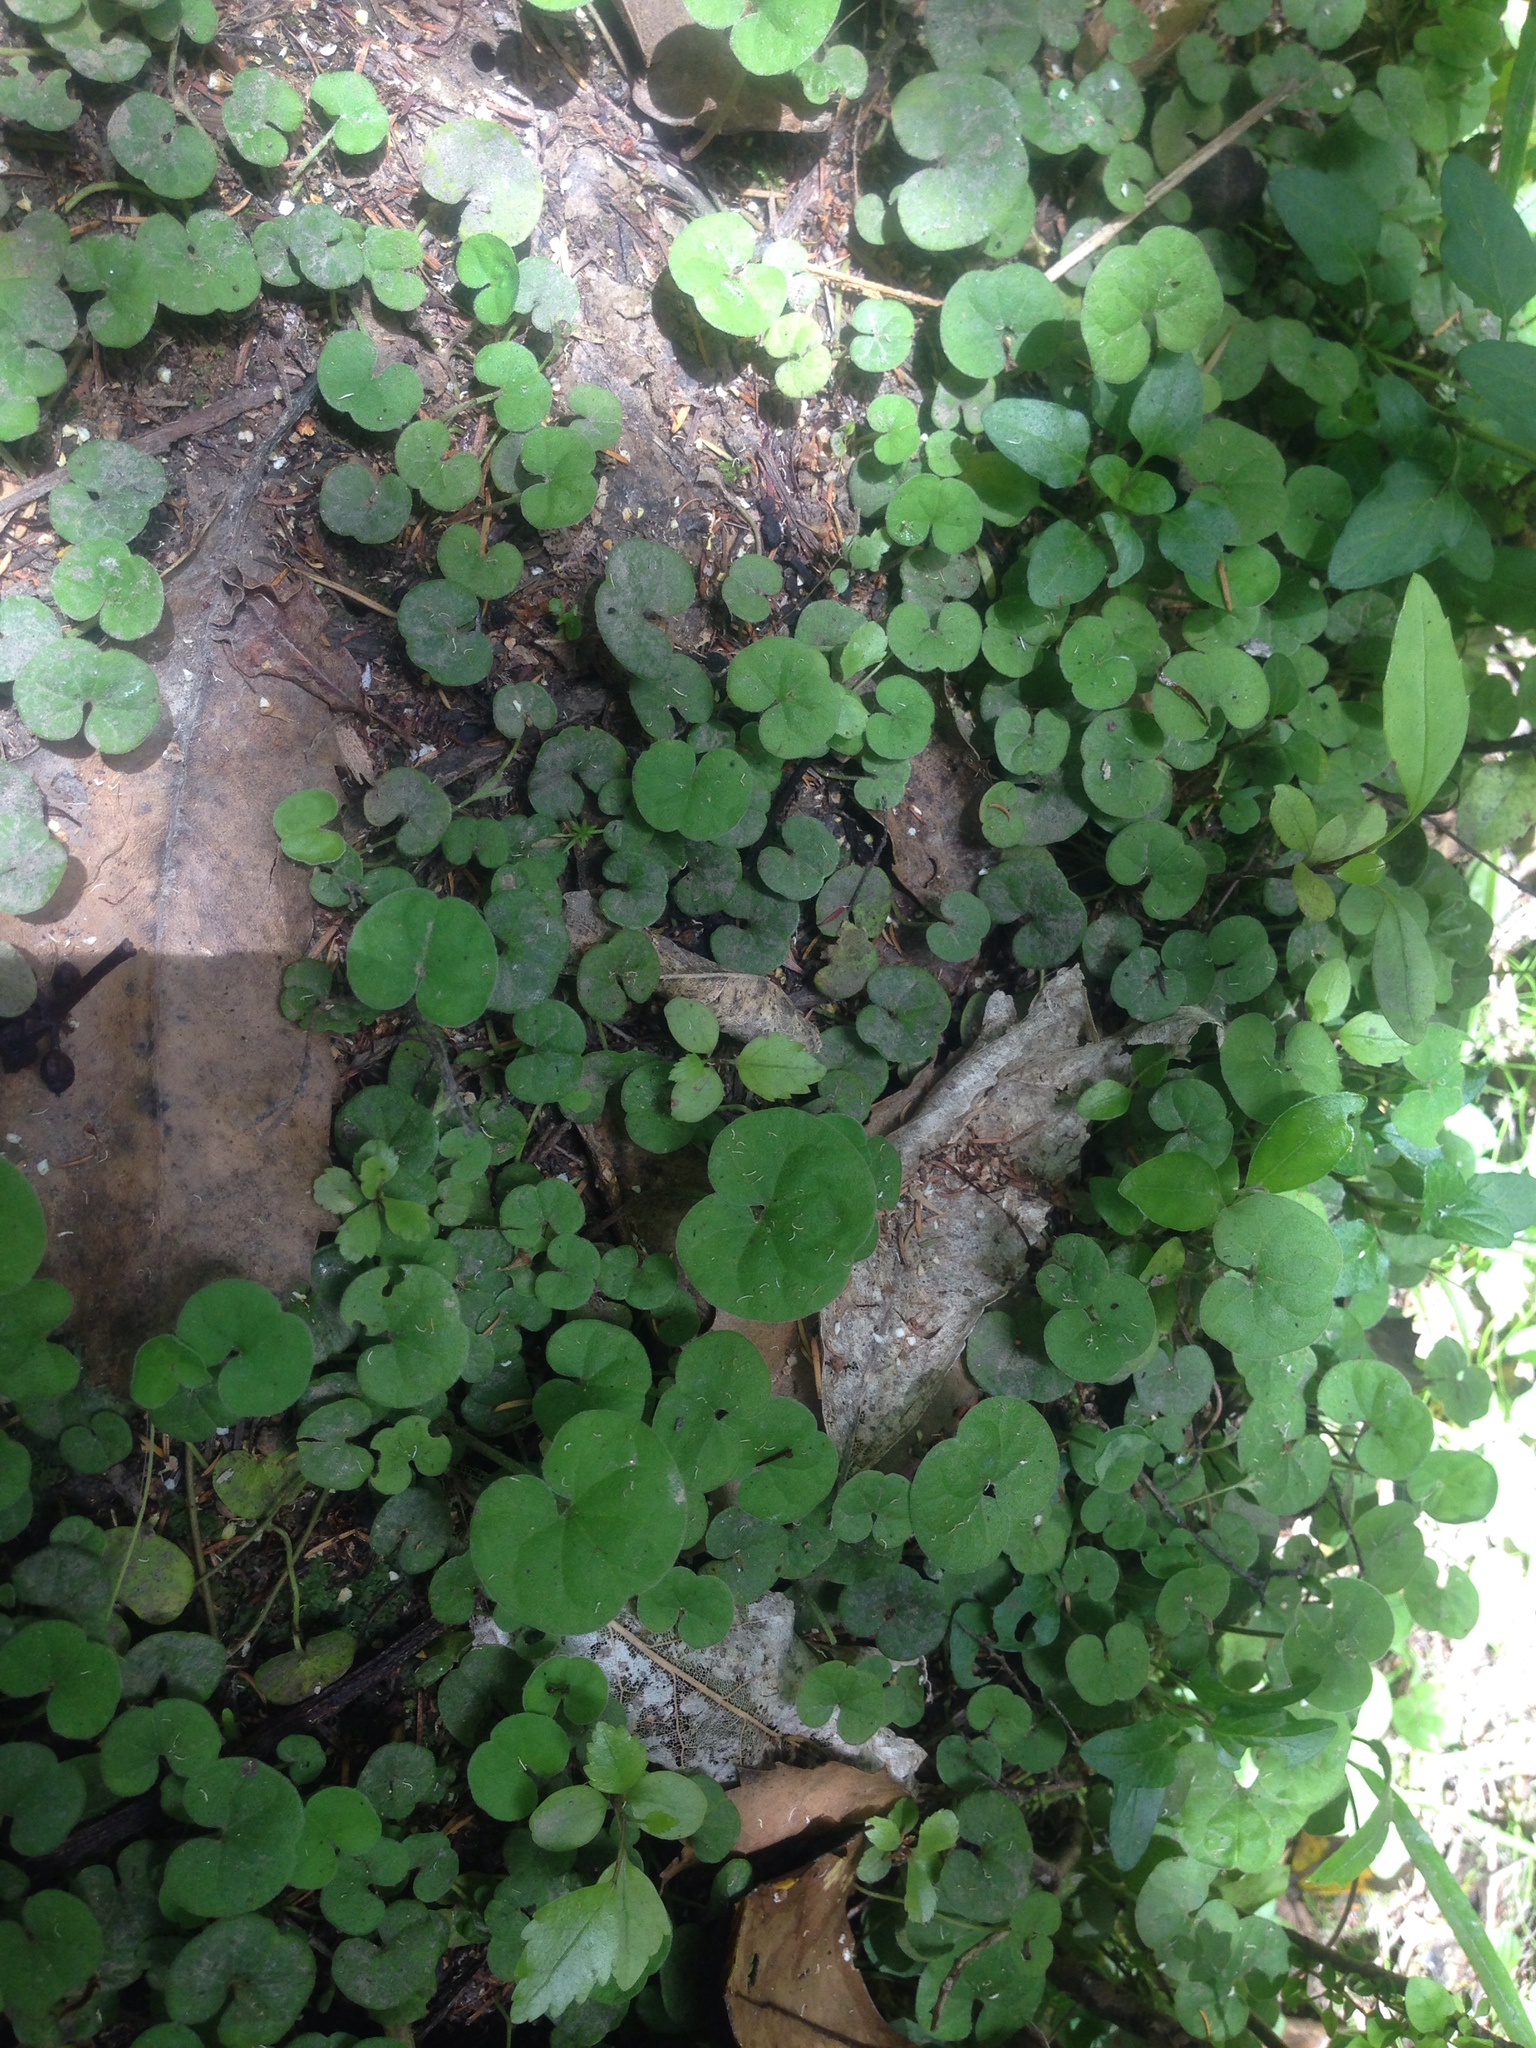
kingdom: Plantae
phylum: Tracheophyta
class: Magnoliopsida
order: Solanales
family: Convolvulaceae
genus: Dichondra
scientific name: Dichondra repens
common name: Kidneyweed
